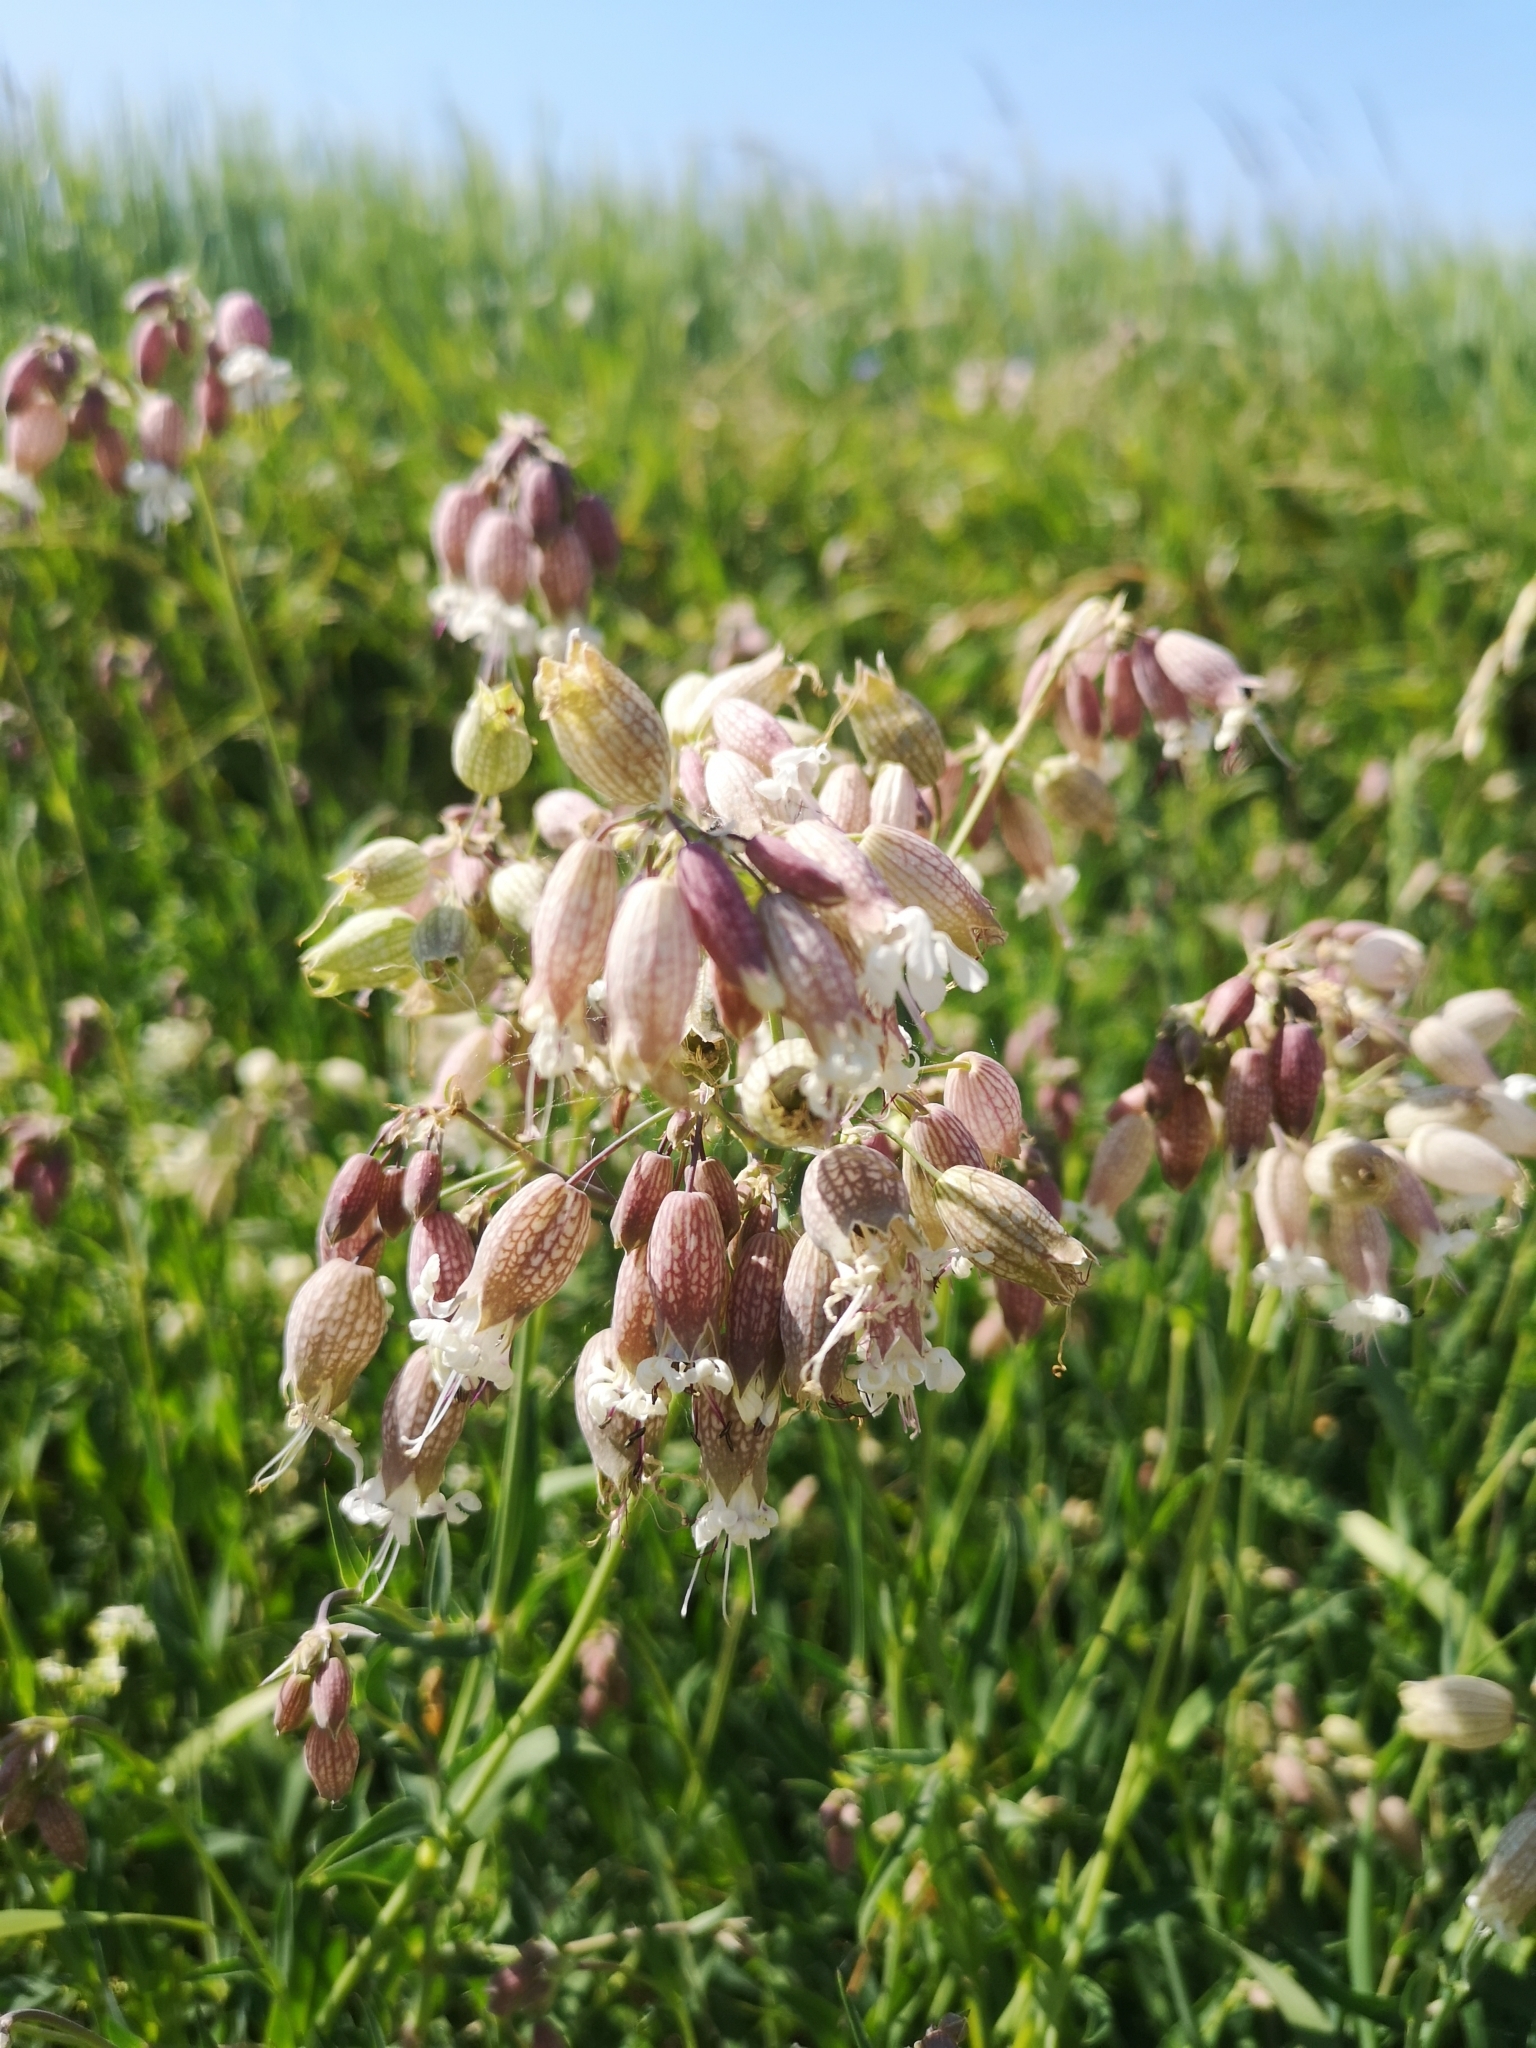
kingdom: Plantae
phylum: Tracheophyta
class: Magnoliopsida
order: Caryophyllales
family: Caryophyllaceae
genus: Silene
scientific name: Silene vulgaris
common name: Bladder campion
